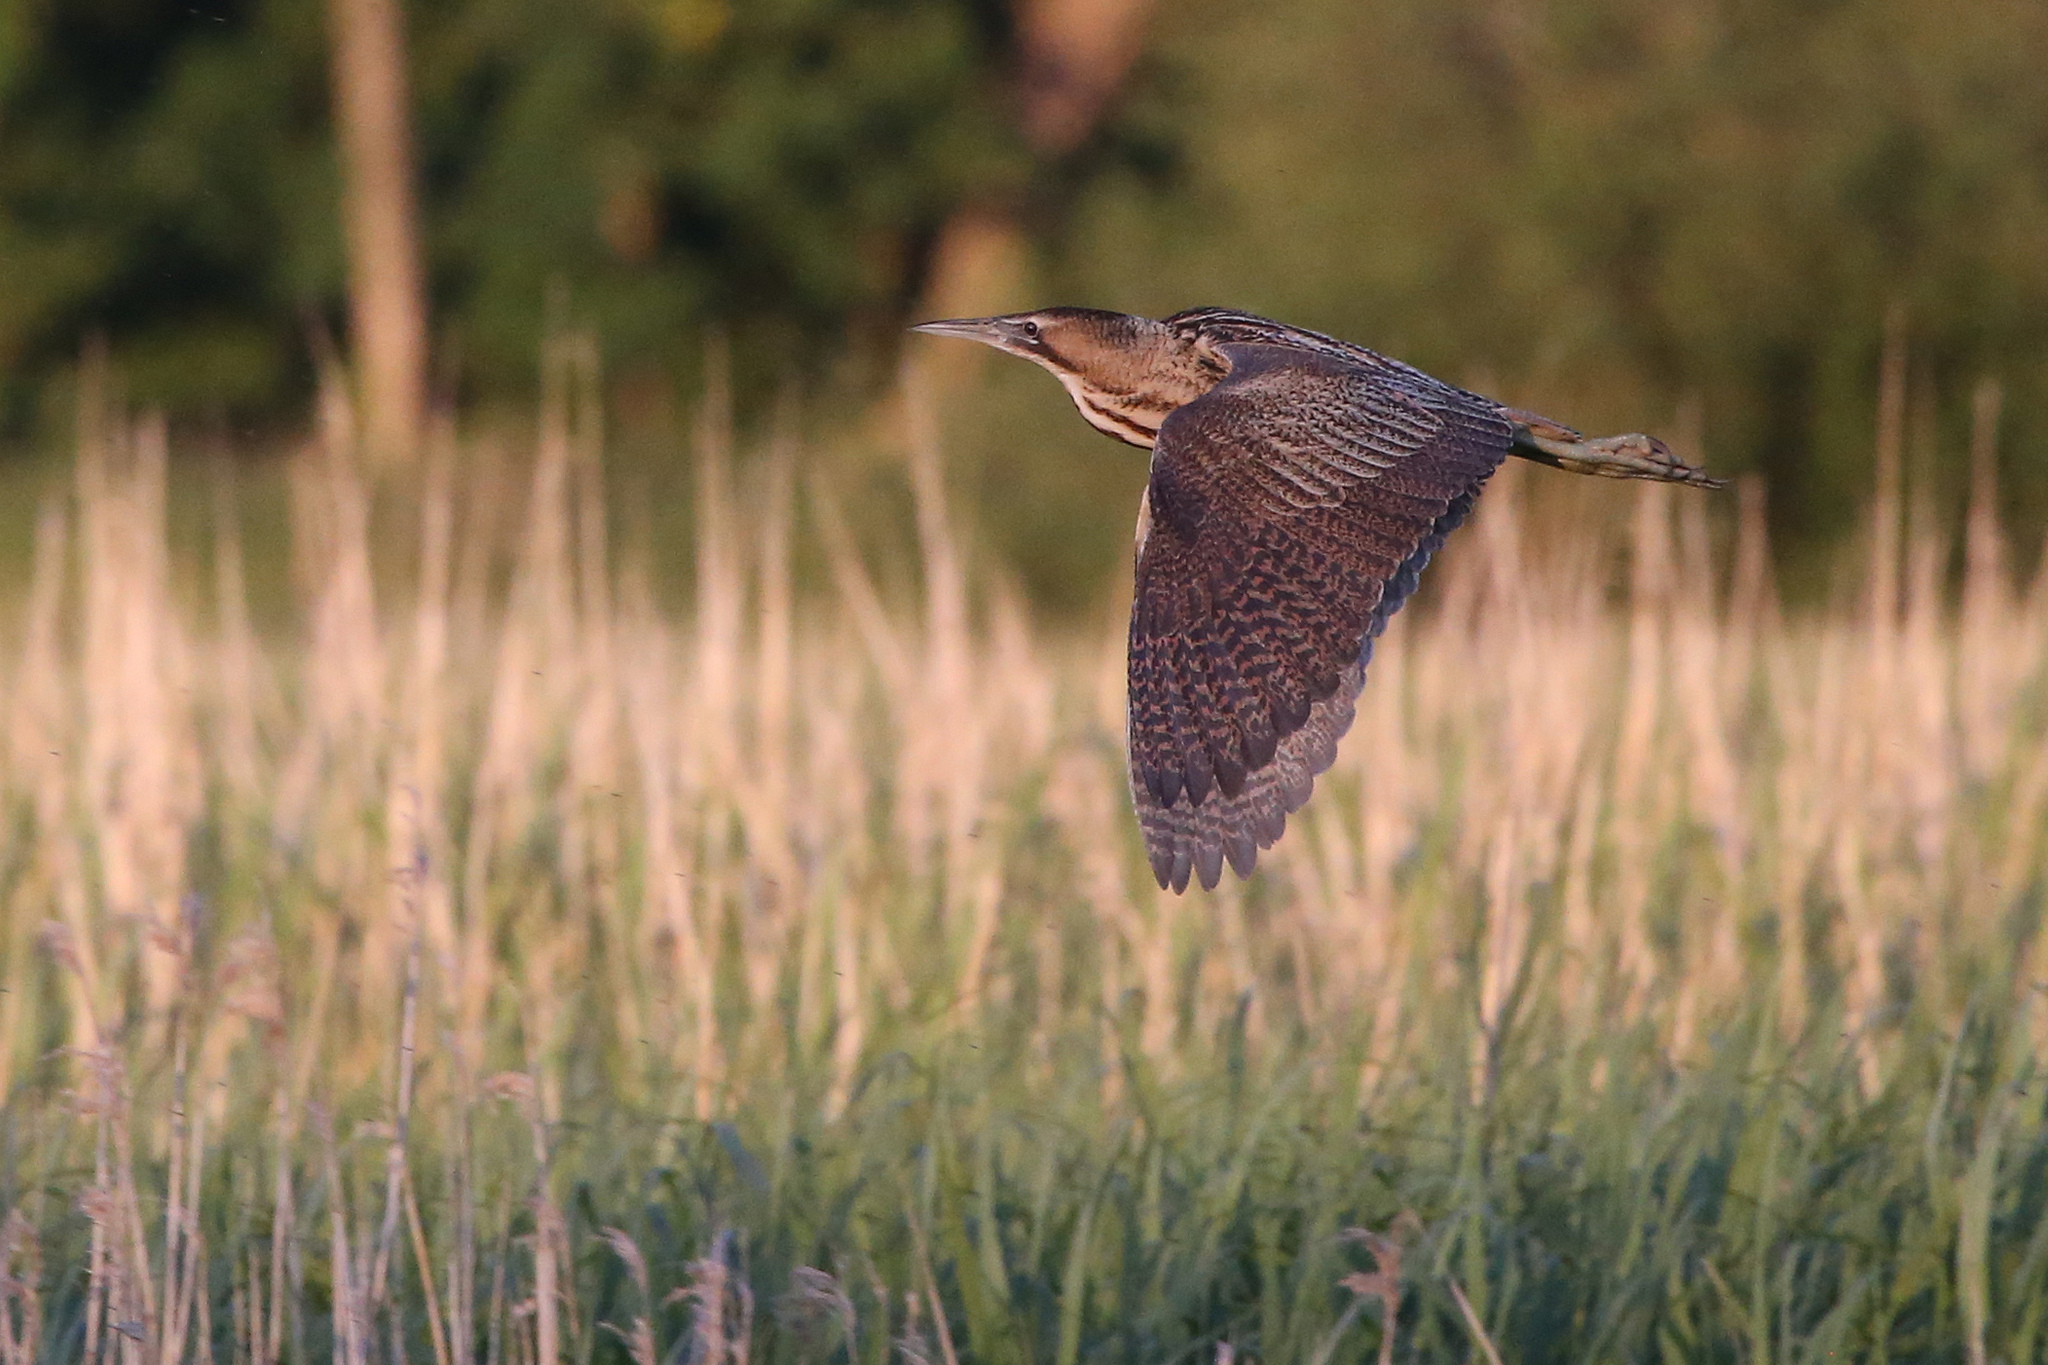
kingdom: Animalia
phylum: Chordata
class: Aves
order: Pelecaniformes
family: Ardeidae
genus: Botaurus
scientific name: Botaurus stellaris
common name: Eurasian bittern
